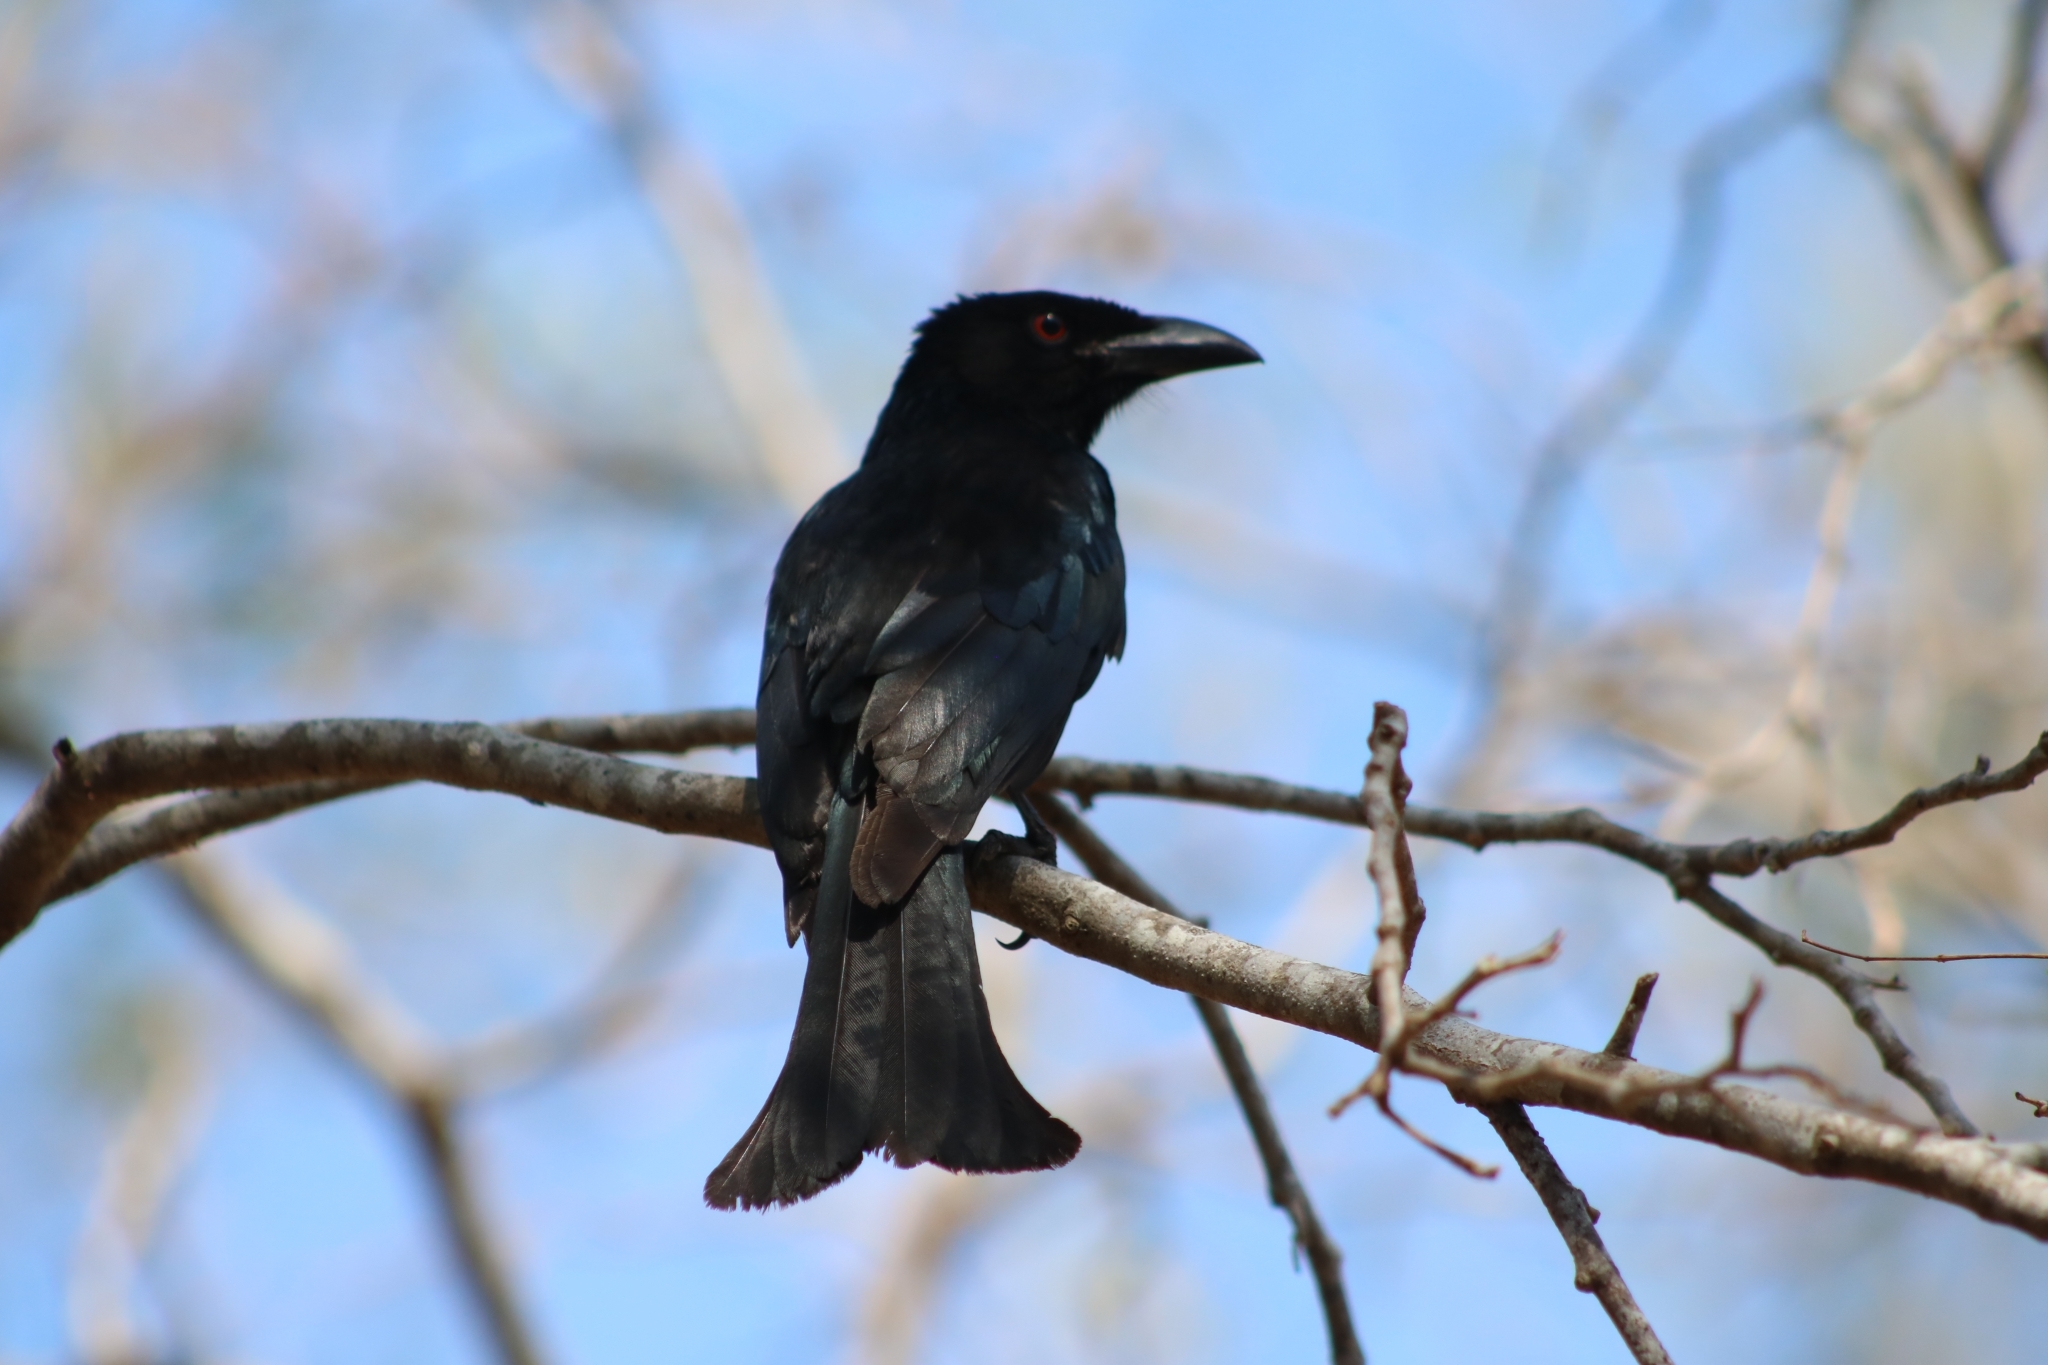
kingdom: Animalia
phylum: Chordata
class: Aves
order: Passeriformes
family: Dicruridae
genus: Dicrurus
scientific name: Dicrurus bracteatus
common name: Spangled drongo
